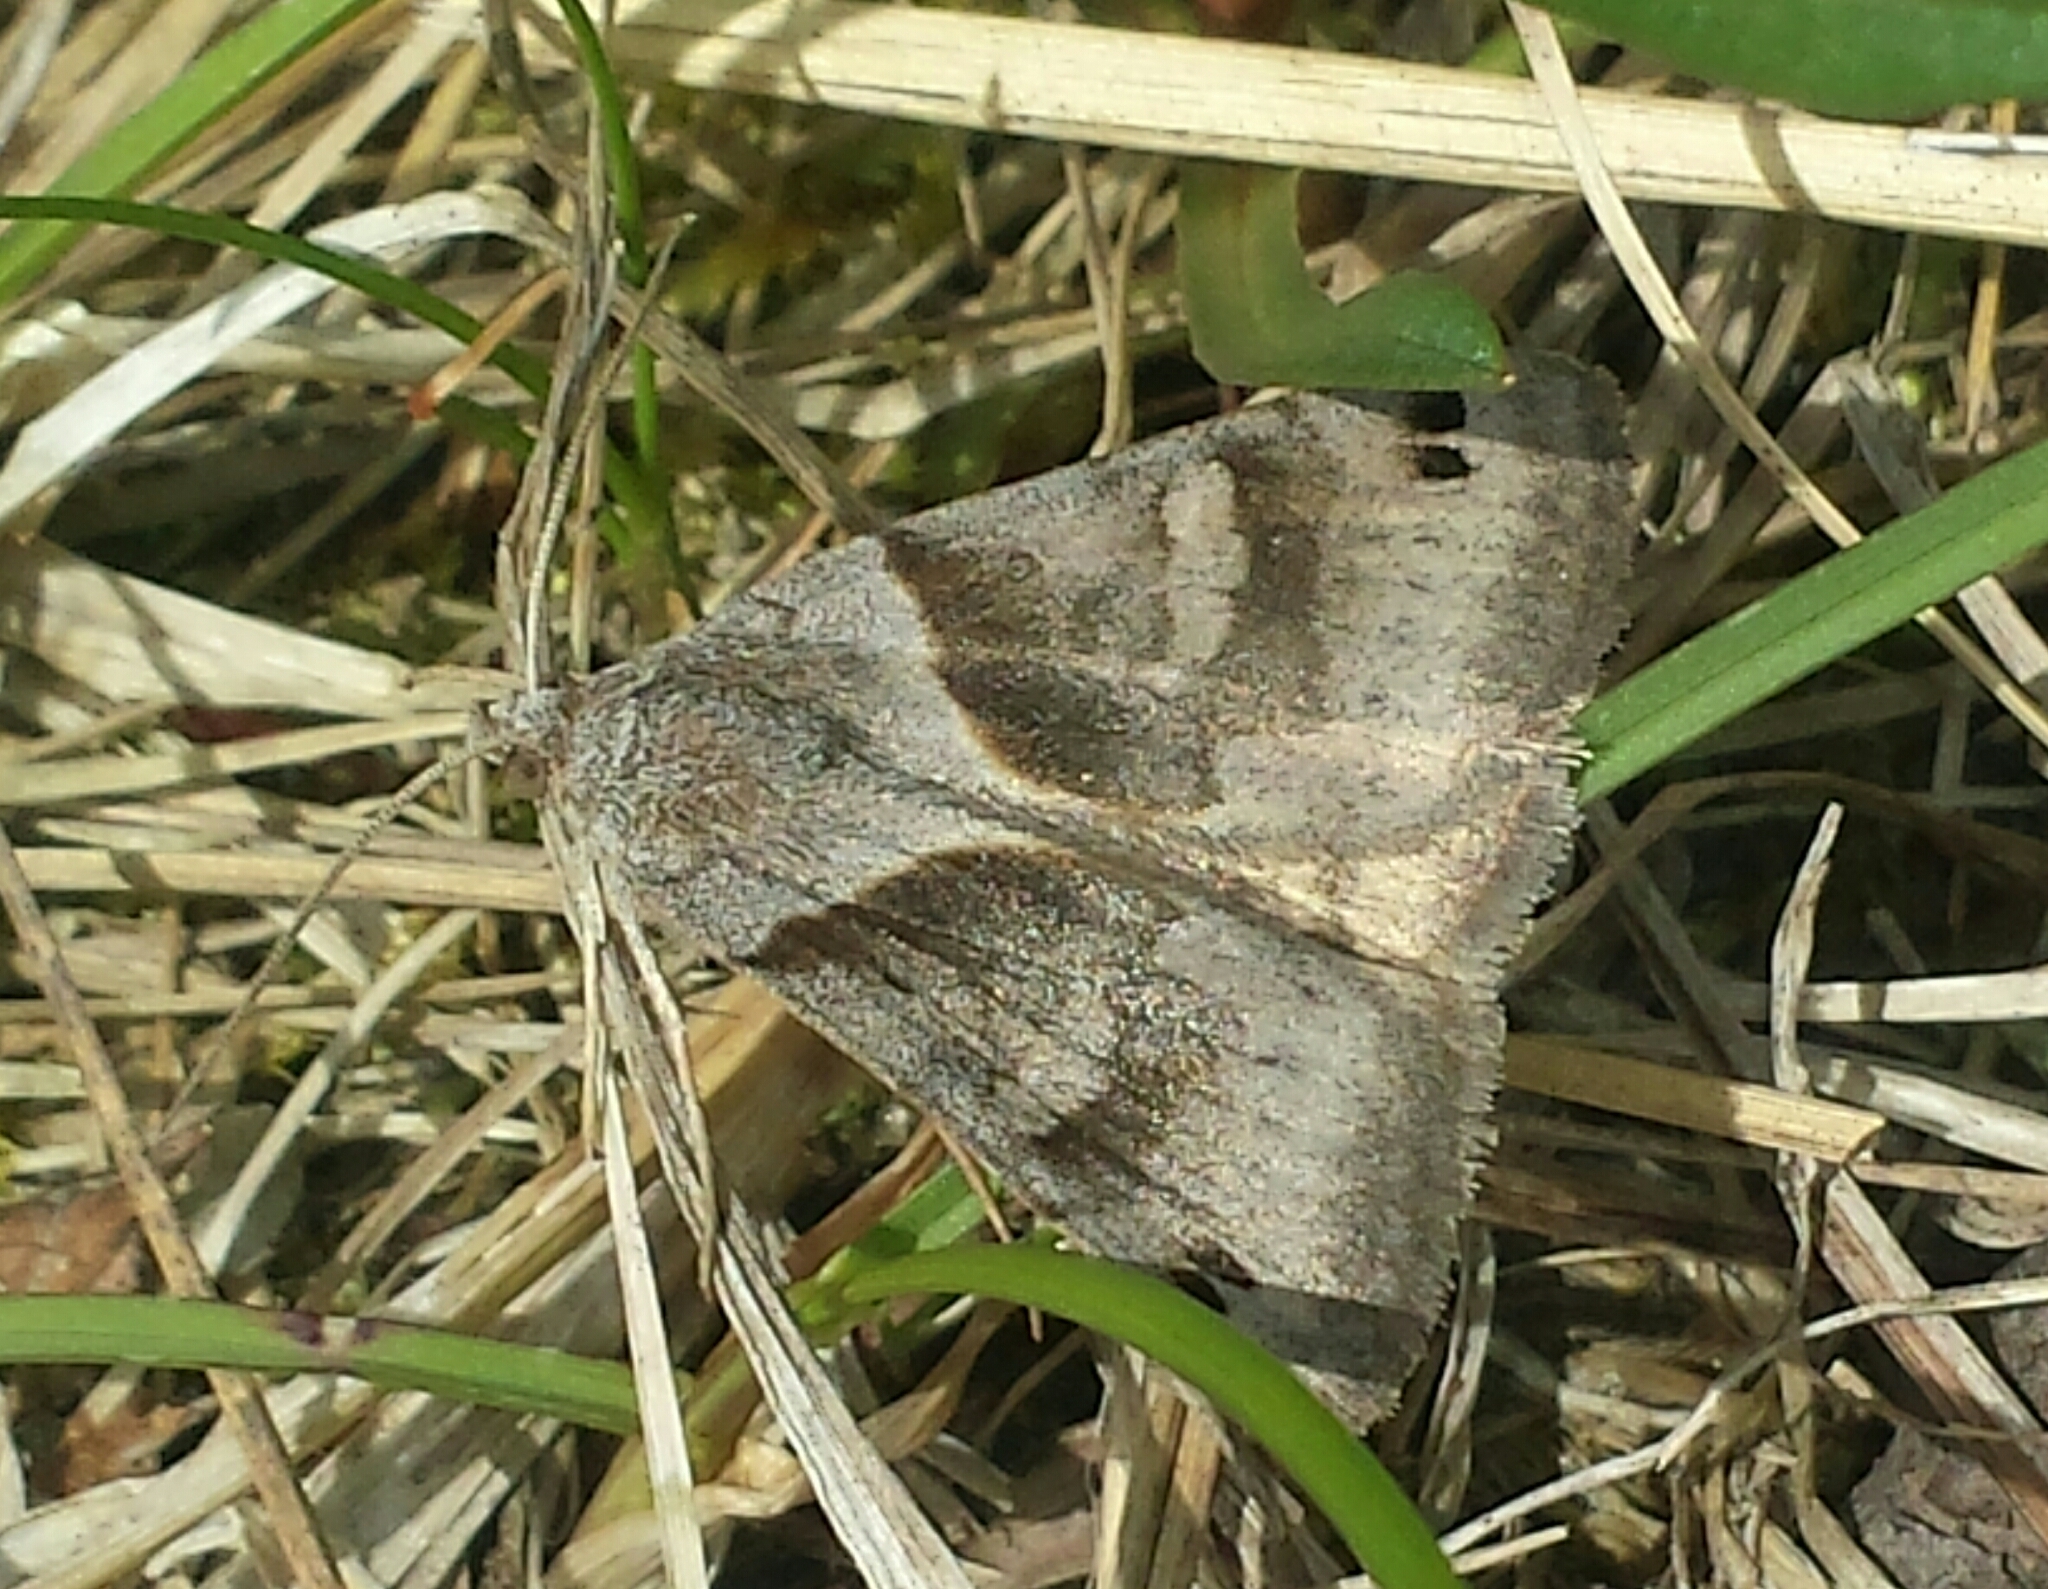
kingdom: Animalia
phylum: Arthropoda
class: Insecta
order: Lepidoptera
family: Erebidae
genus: Caenurgina
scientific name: Caenurgina crassiuscula
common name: Double-barred
